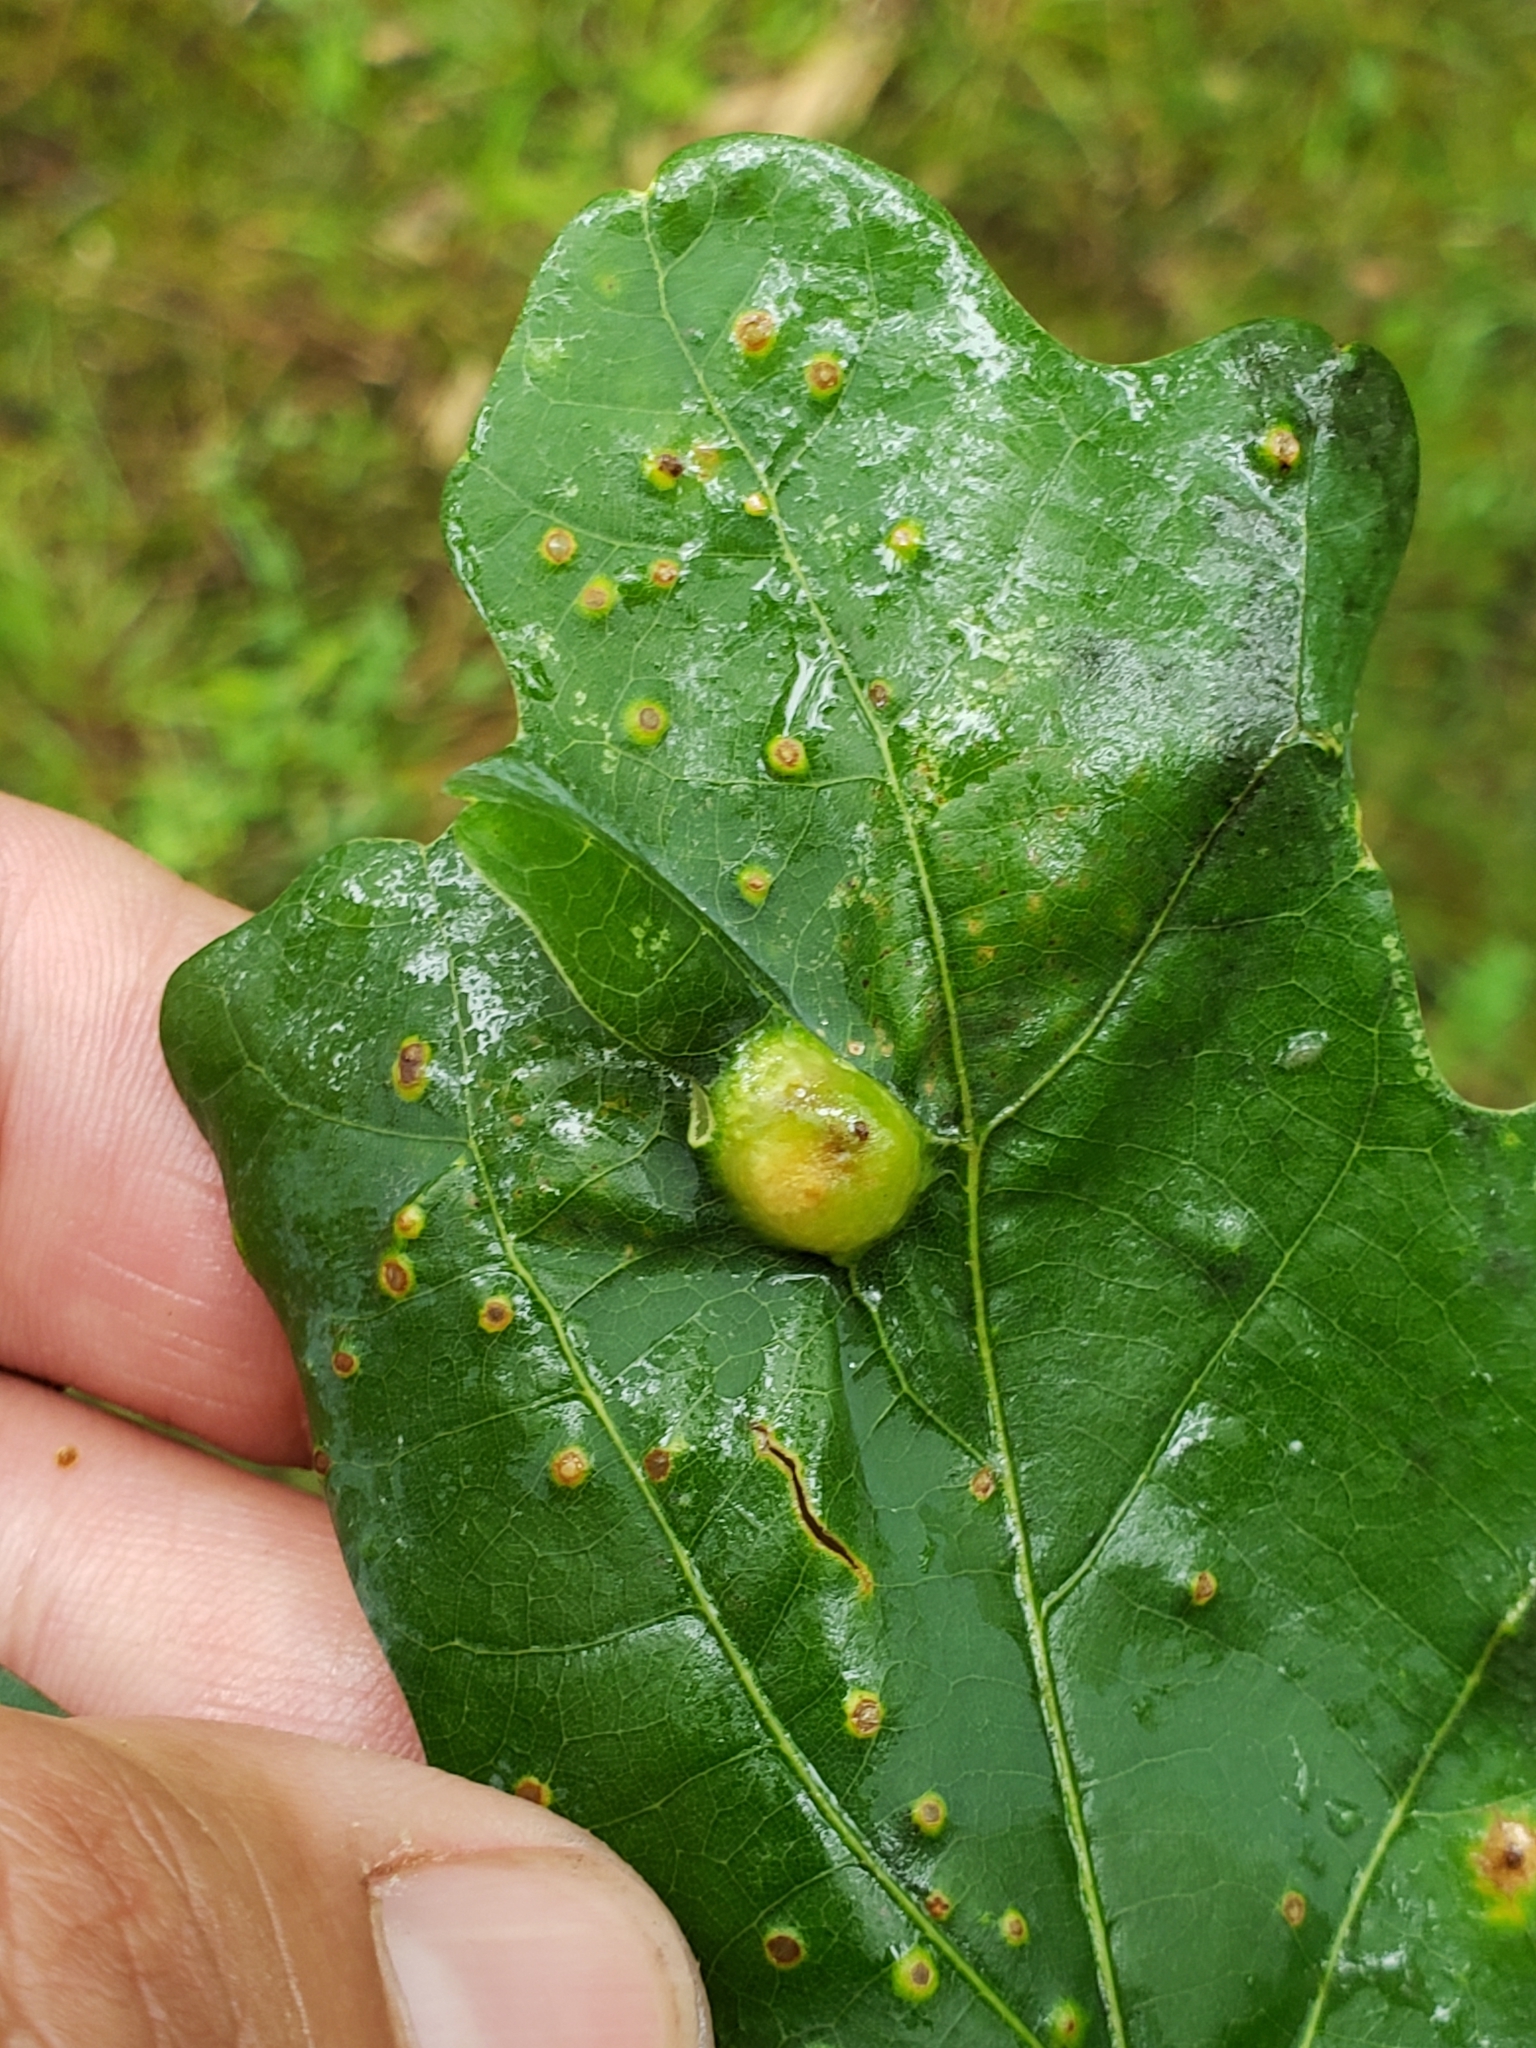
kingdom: Animalia
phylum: Arthropoda
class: Insecta
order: Hymenoptera
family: Cynipidae
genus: Callirhytis
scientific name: Callirhytis
